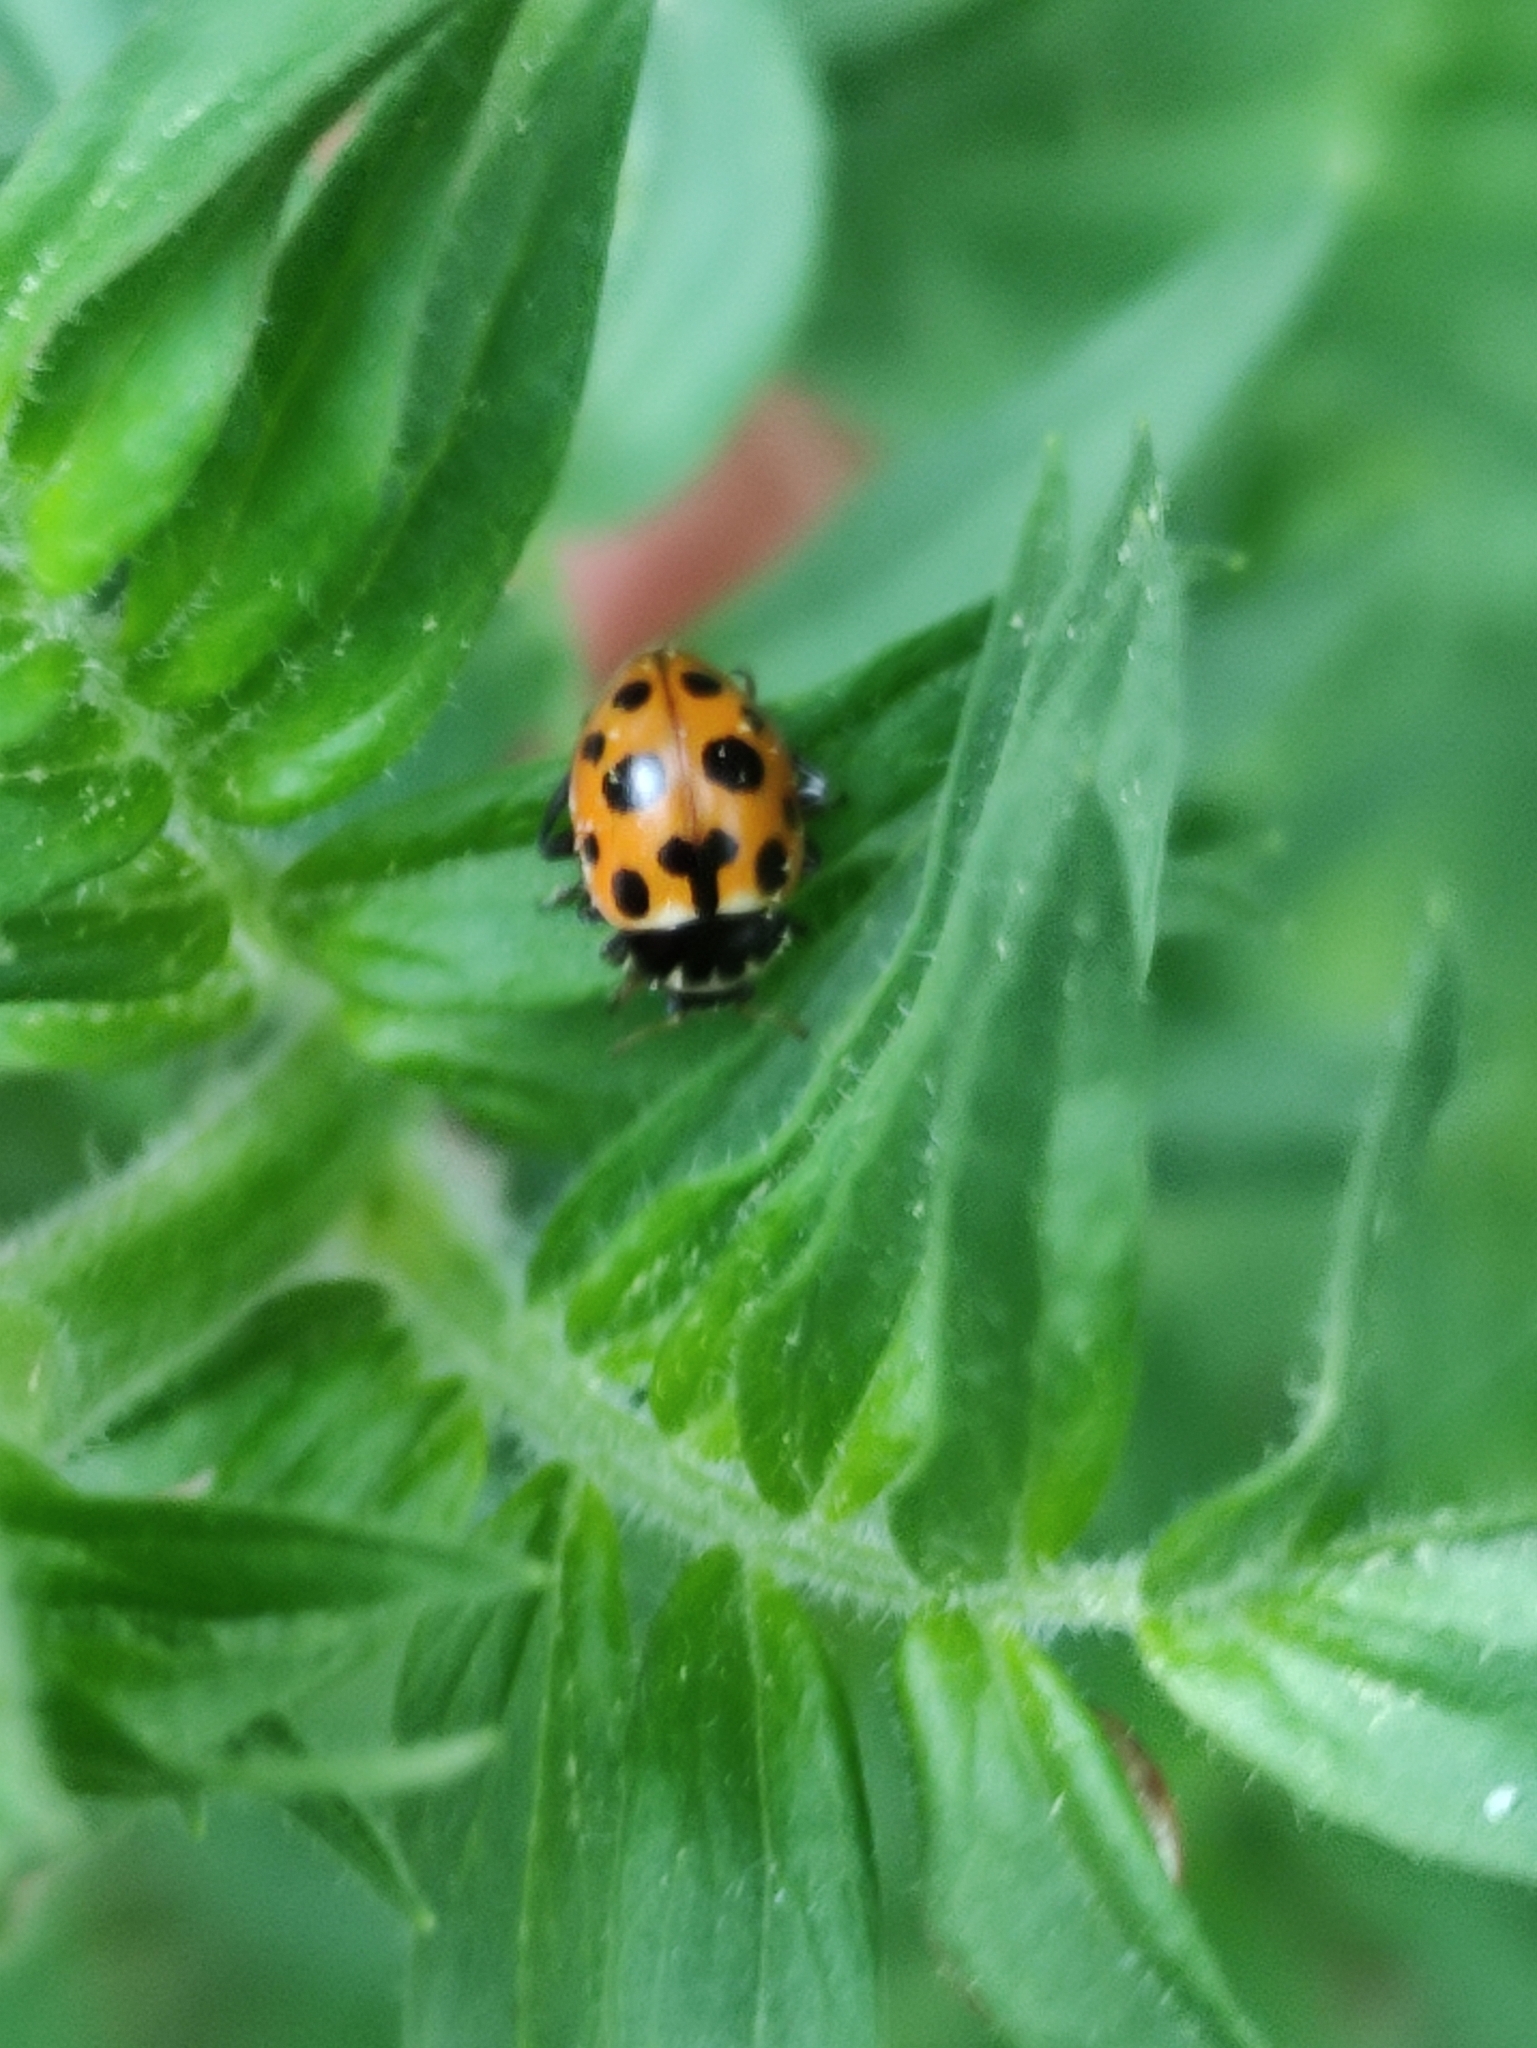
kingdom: Animalia
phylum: Arthropoda
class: Insecta
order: Coleoptera
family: Coccinellidae
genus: Ceratomegilla
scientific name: Ceratomegilla notata
